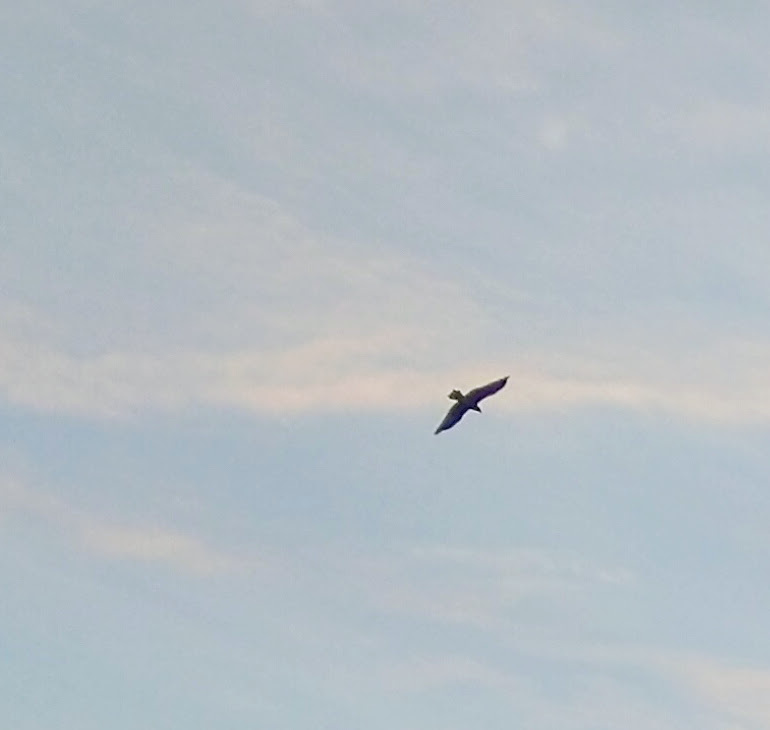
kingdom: Animalia
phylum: Chordata
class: Aves
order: Accipitriformes
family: Accipitridae
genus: Milvus
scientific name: Milvus migrans
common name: Black kite
